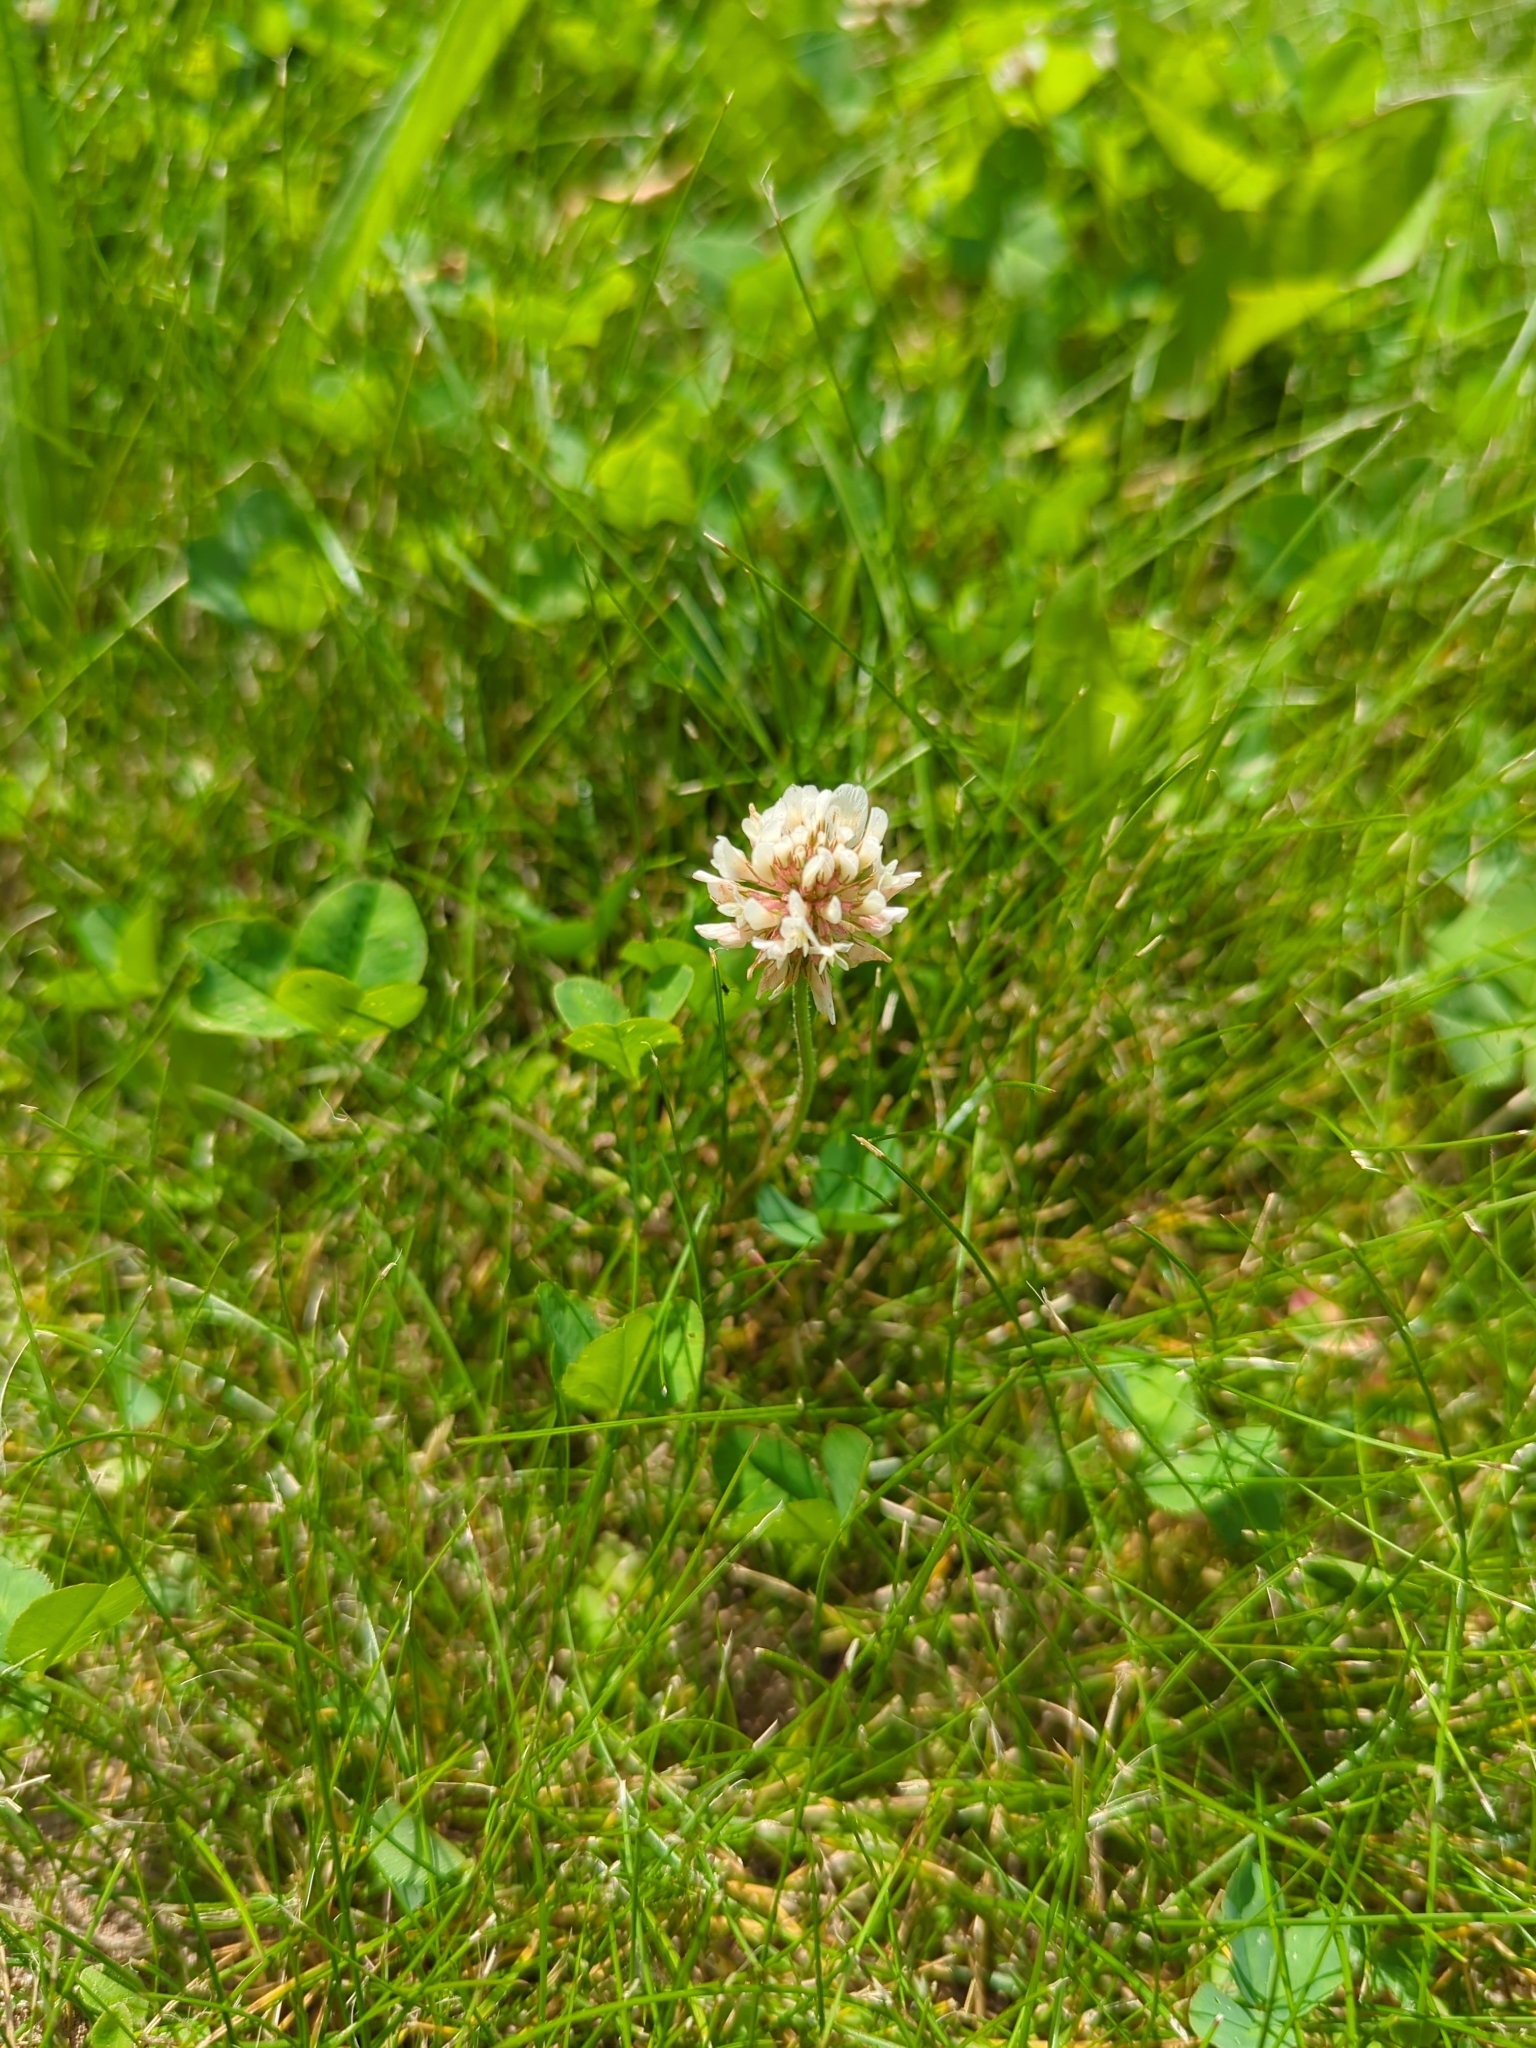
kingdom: Plantae
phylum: Tracheophyta
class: Magnoliopsida
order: Fabales
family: Fabaceae
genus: Trifolium
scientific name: Trifolium repens
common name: White clover
